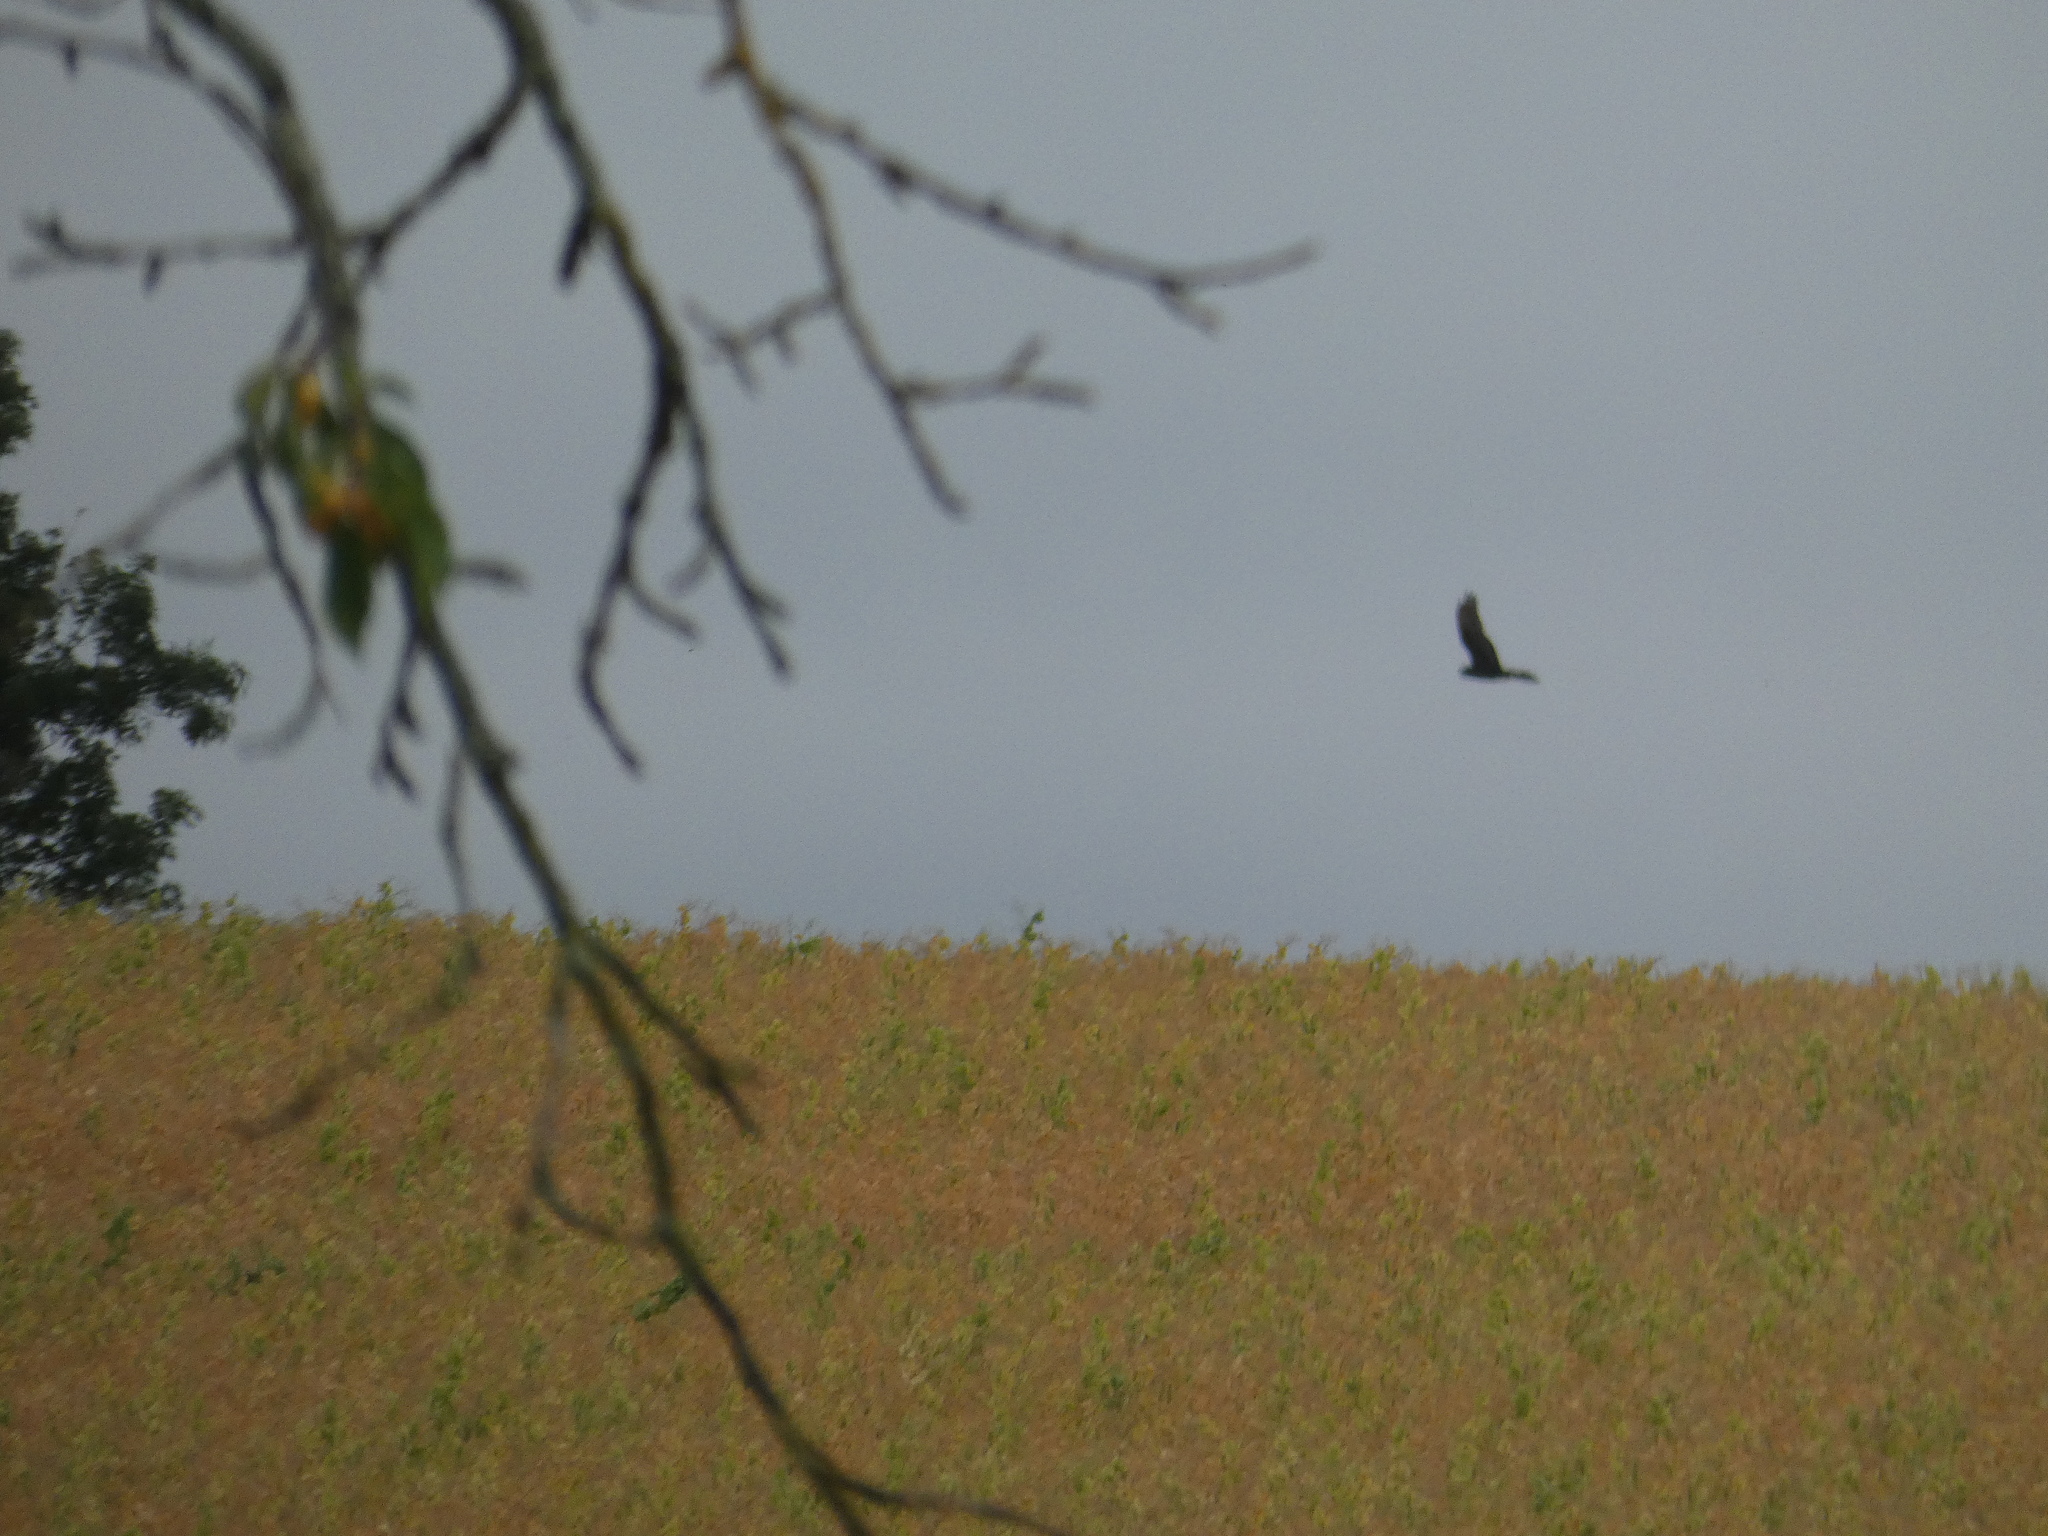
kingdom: Animalia
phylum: Chordata
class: Aves
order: Accipitriformes
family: Accipitridae
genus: Circus
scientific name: Circus pygargus
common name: Montagu's harrier
